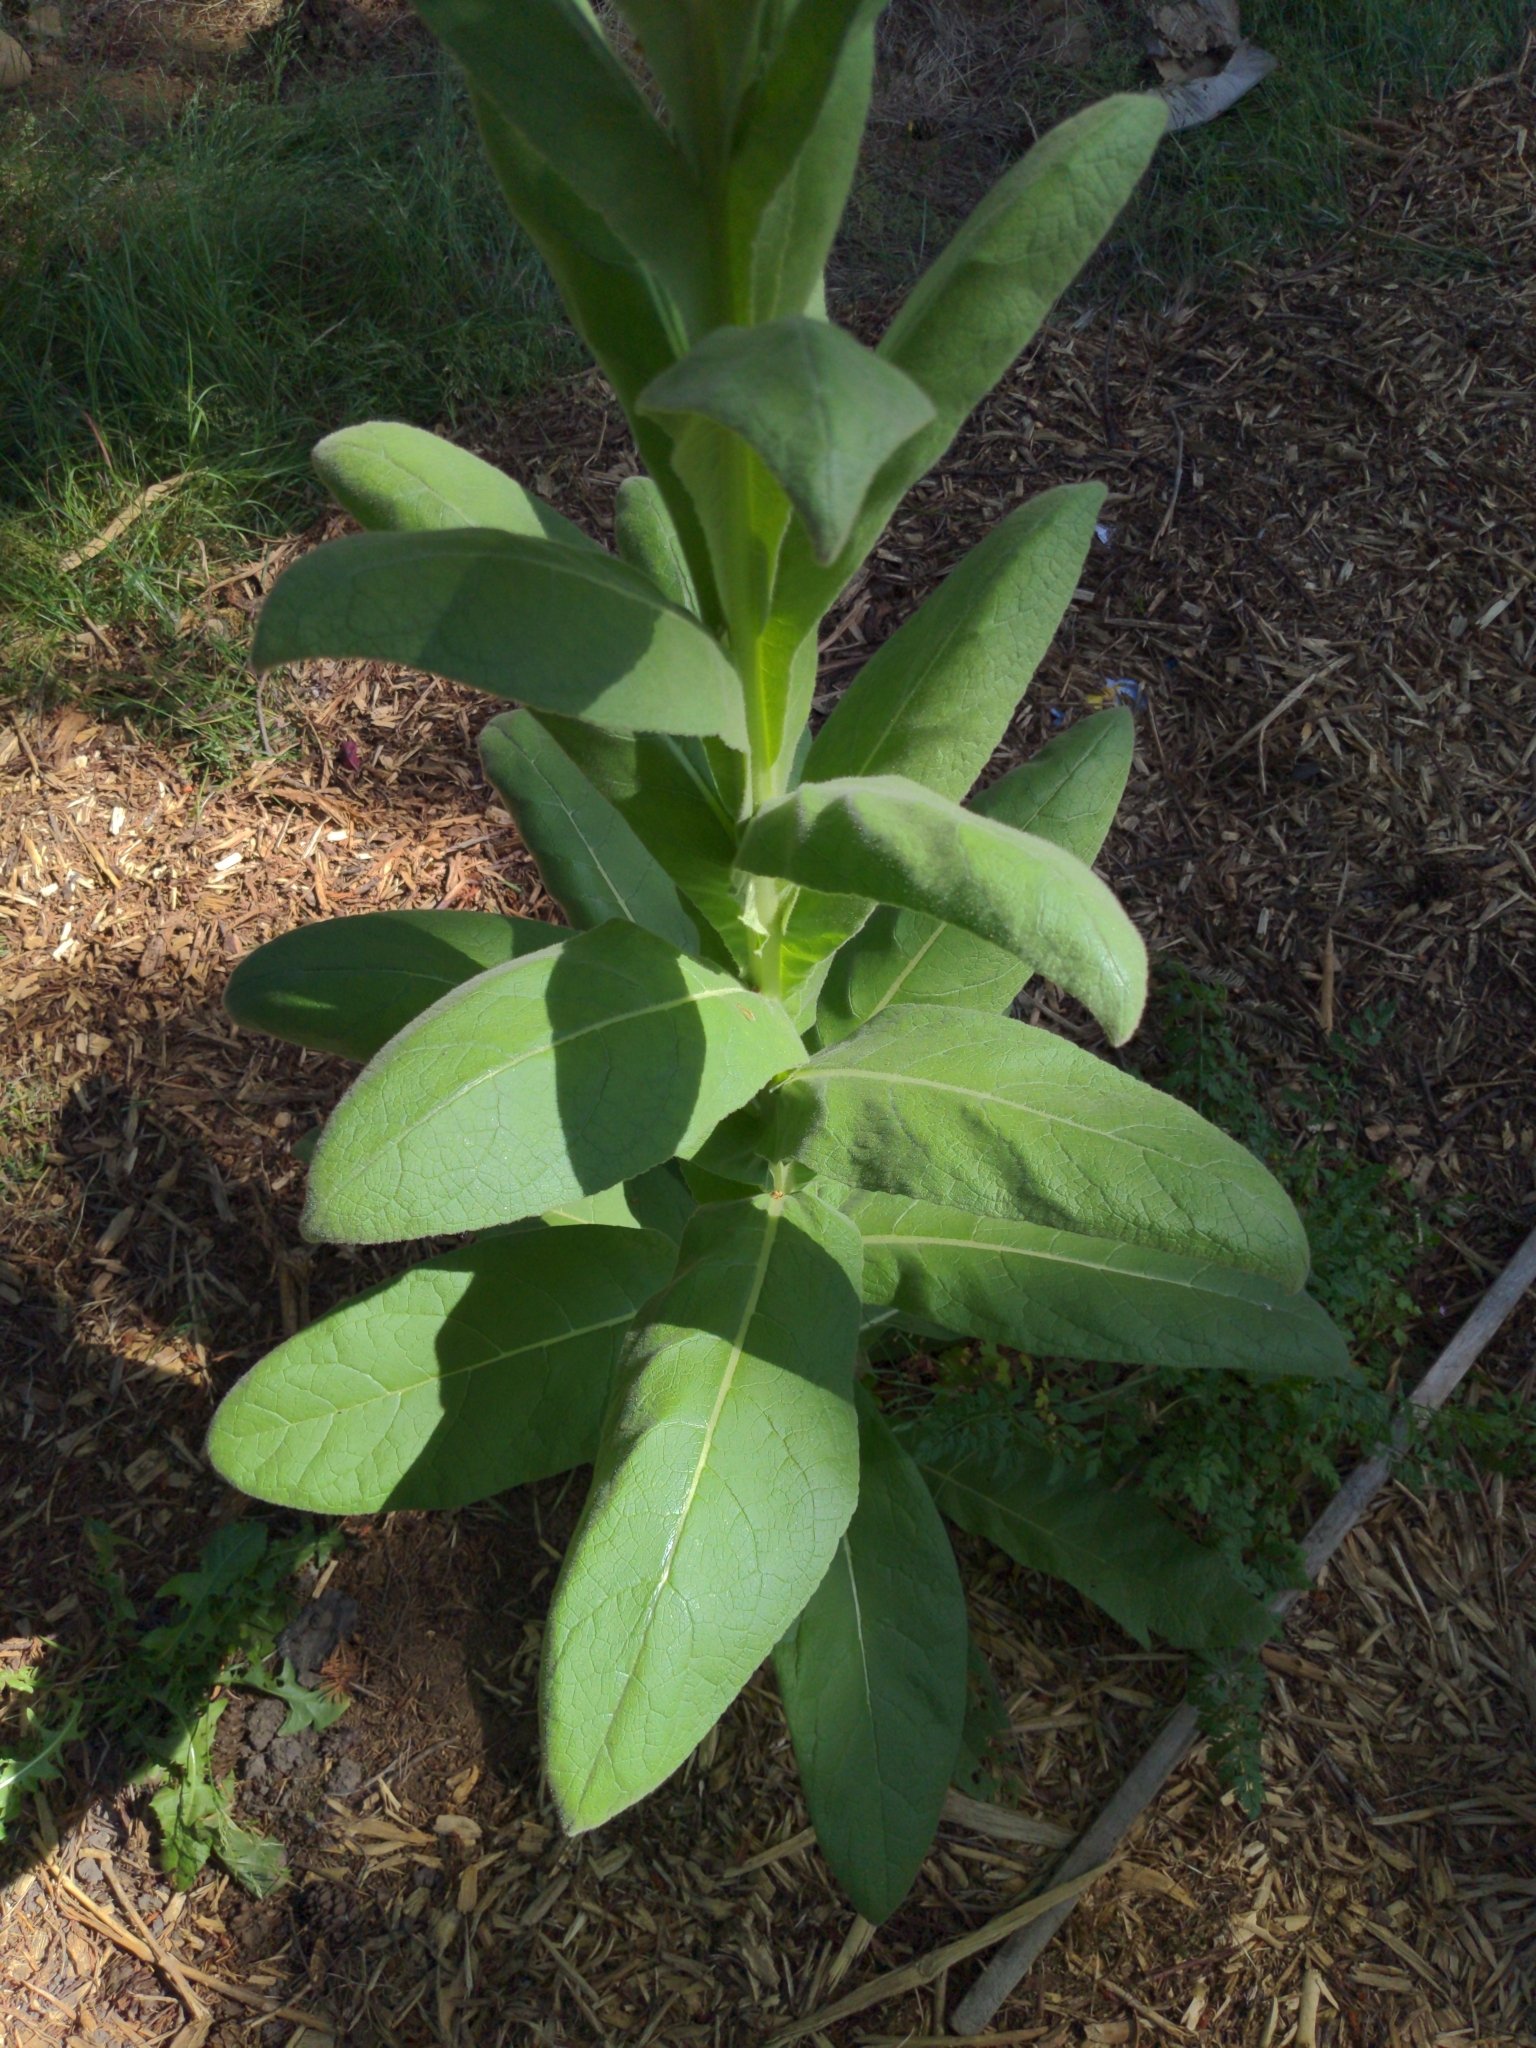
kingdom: Plantae
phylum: Tracheophyta
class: Magnoliopsida
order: Lamiales
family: Scrophulariaceae
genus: Verbascum
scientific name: Verbascum thapsus
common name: Common mullein
